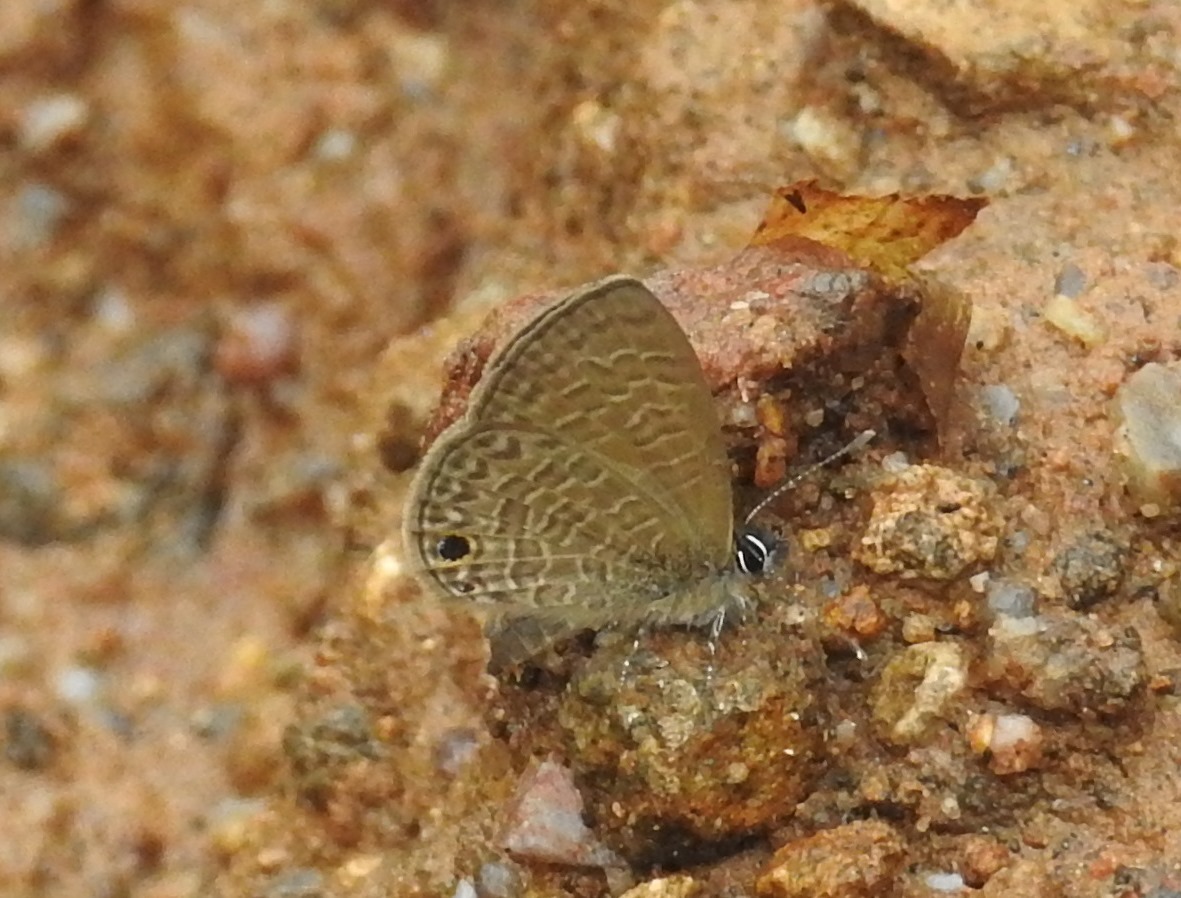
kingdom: Animalia
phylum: Arthropoda
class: Insecta
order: Lepidoptera
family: Lycaenidae
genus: Prosotas
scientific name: Prosotas dubiosa
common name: Tailless lineblue
